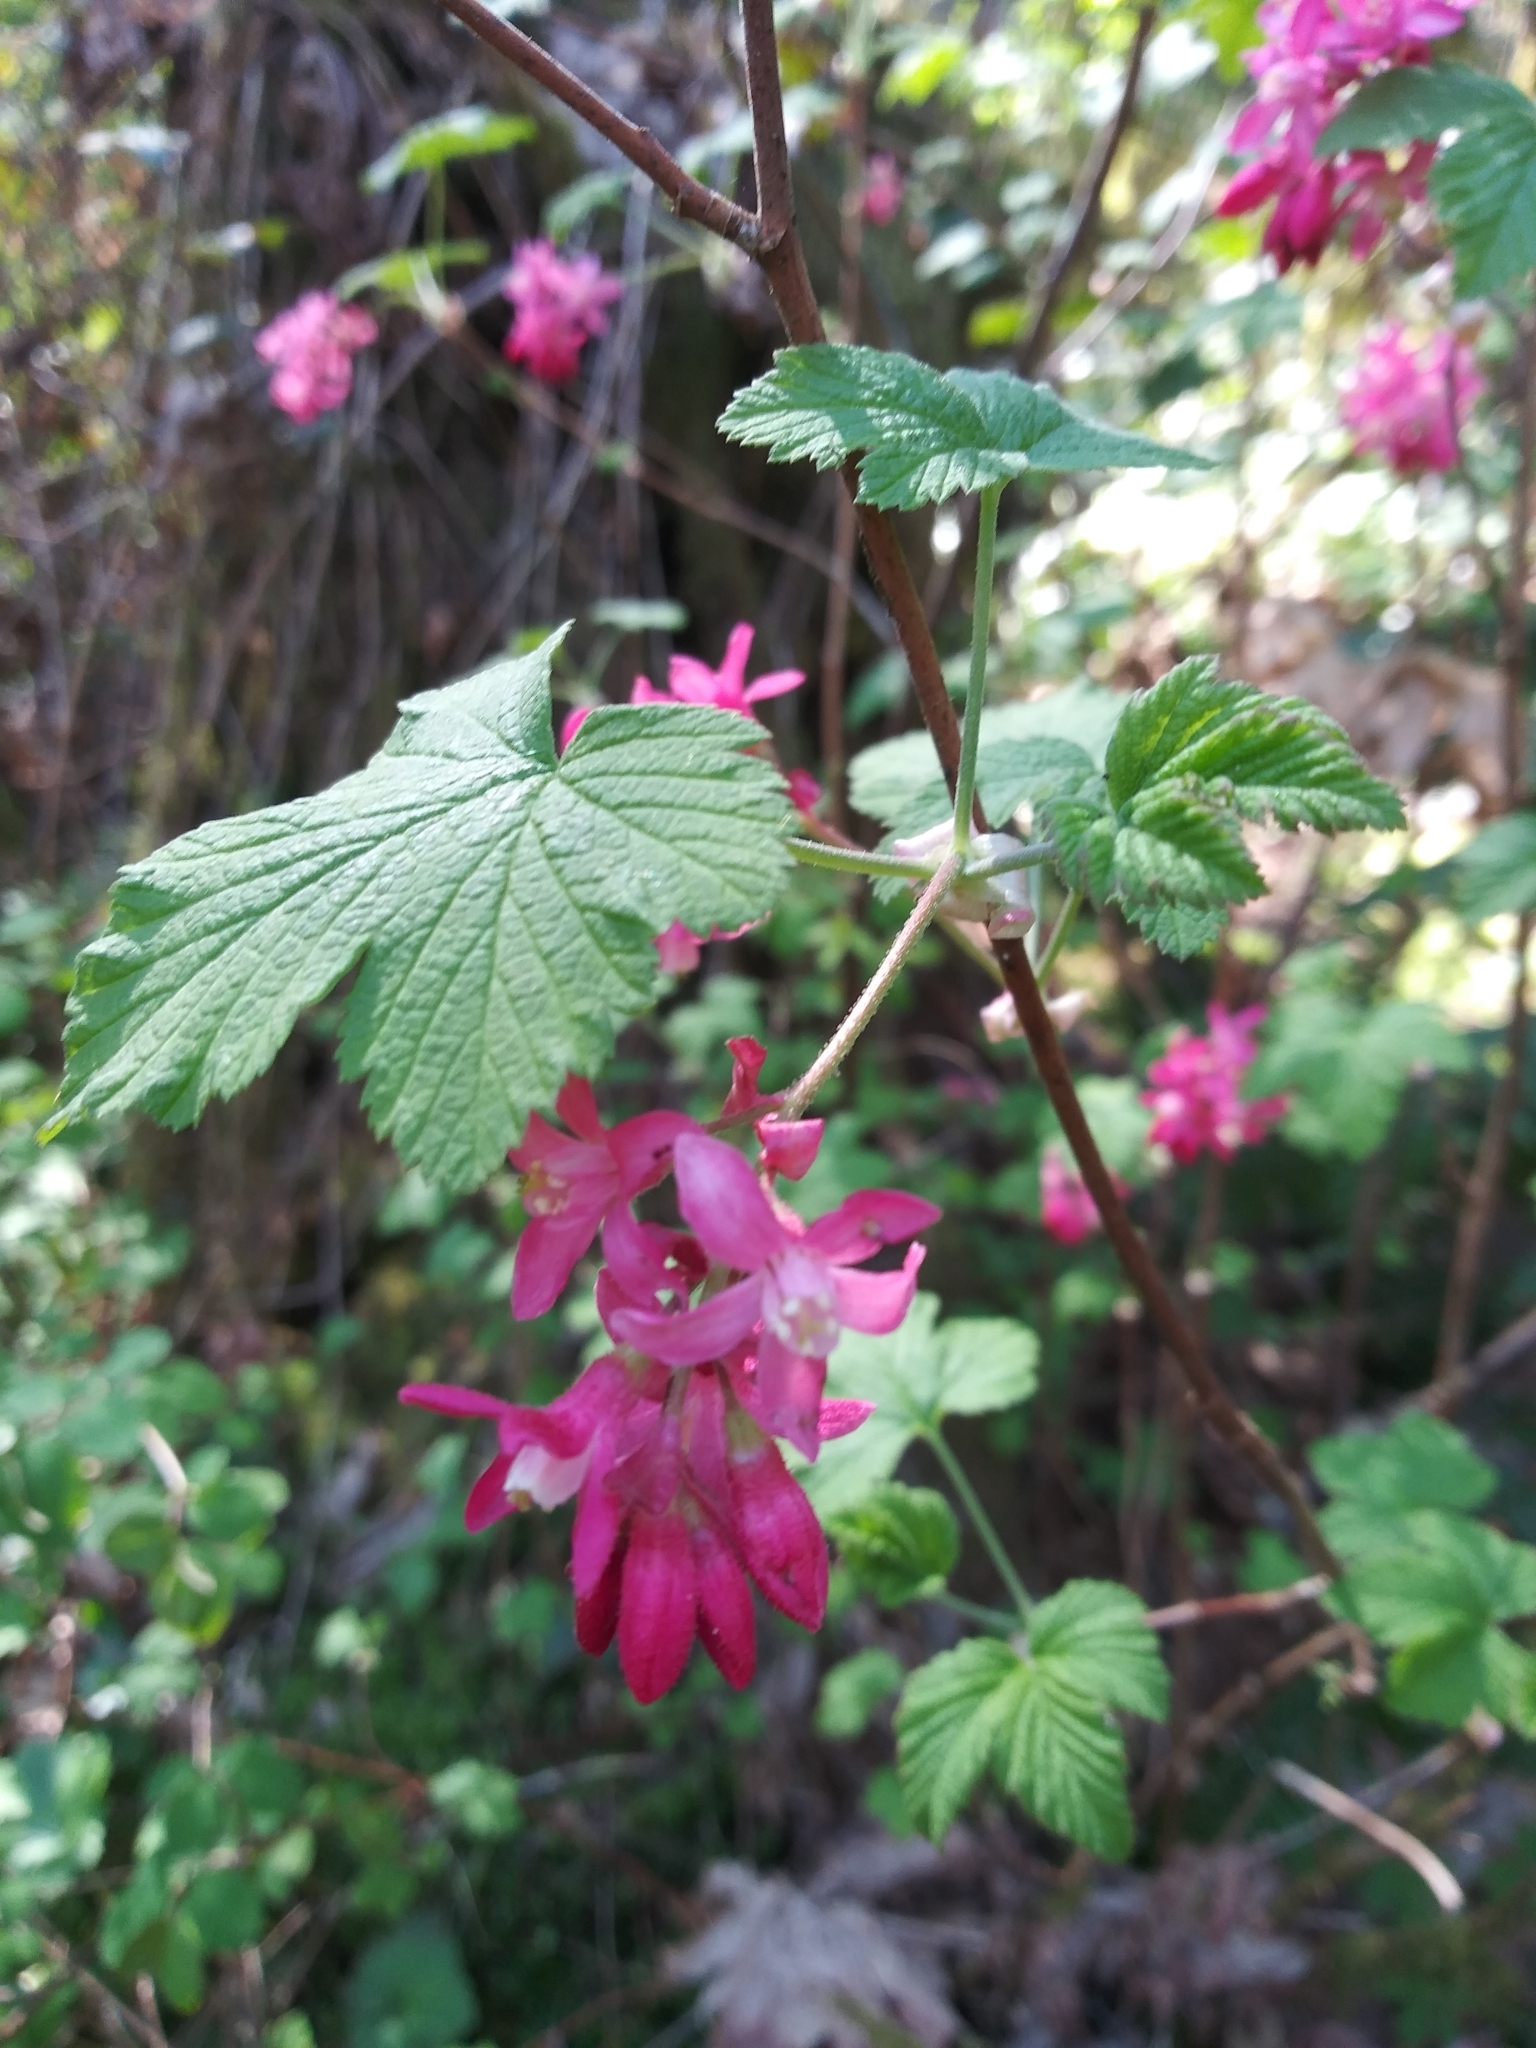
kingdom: Plantae
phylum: Tracheophyta
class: Magnoliopsida
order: Saxifragales
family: Grossulariaceae
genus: Ribes
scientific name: Ribes sanguineum
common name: Flowering currant
